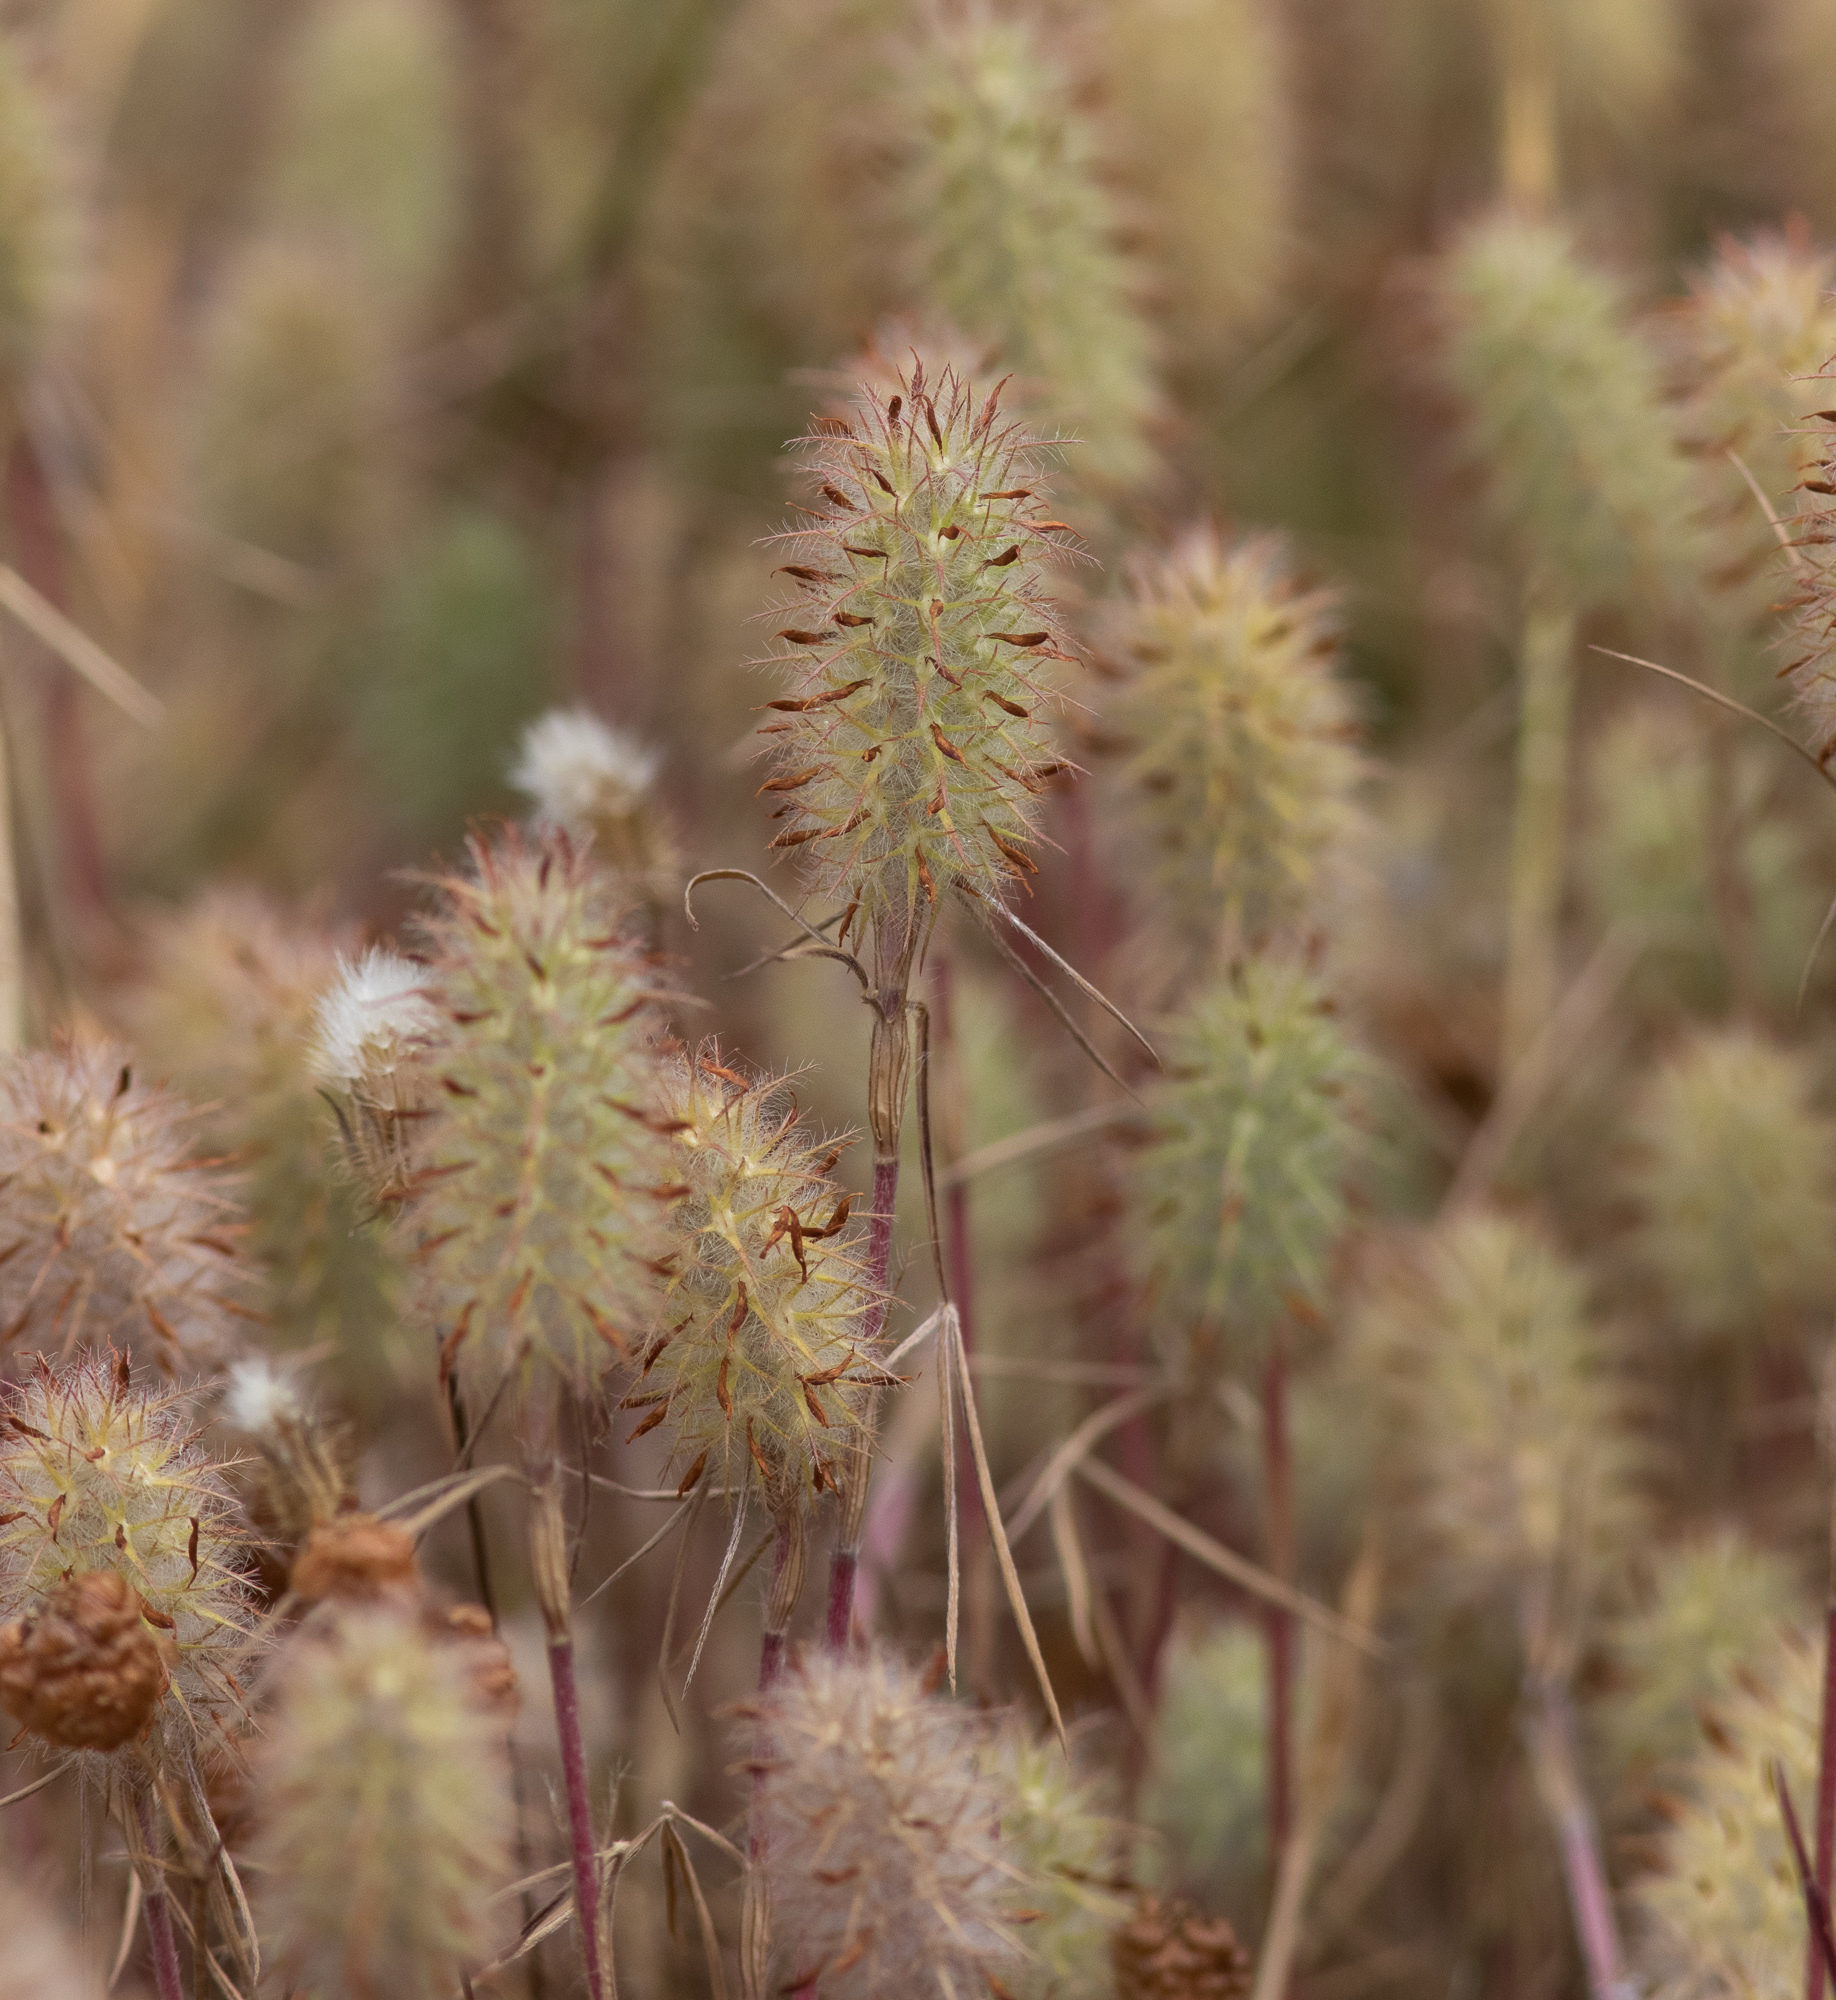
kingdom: Plantae
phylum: Tracheophyta
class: Magnoliopsida
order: Fabales
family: Fabaceae
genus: Trifolium
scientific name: Trifolium angustifolium
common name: Narrow clover
